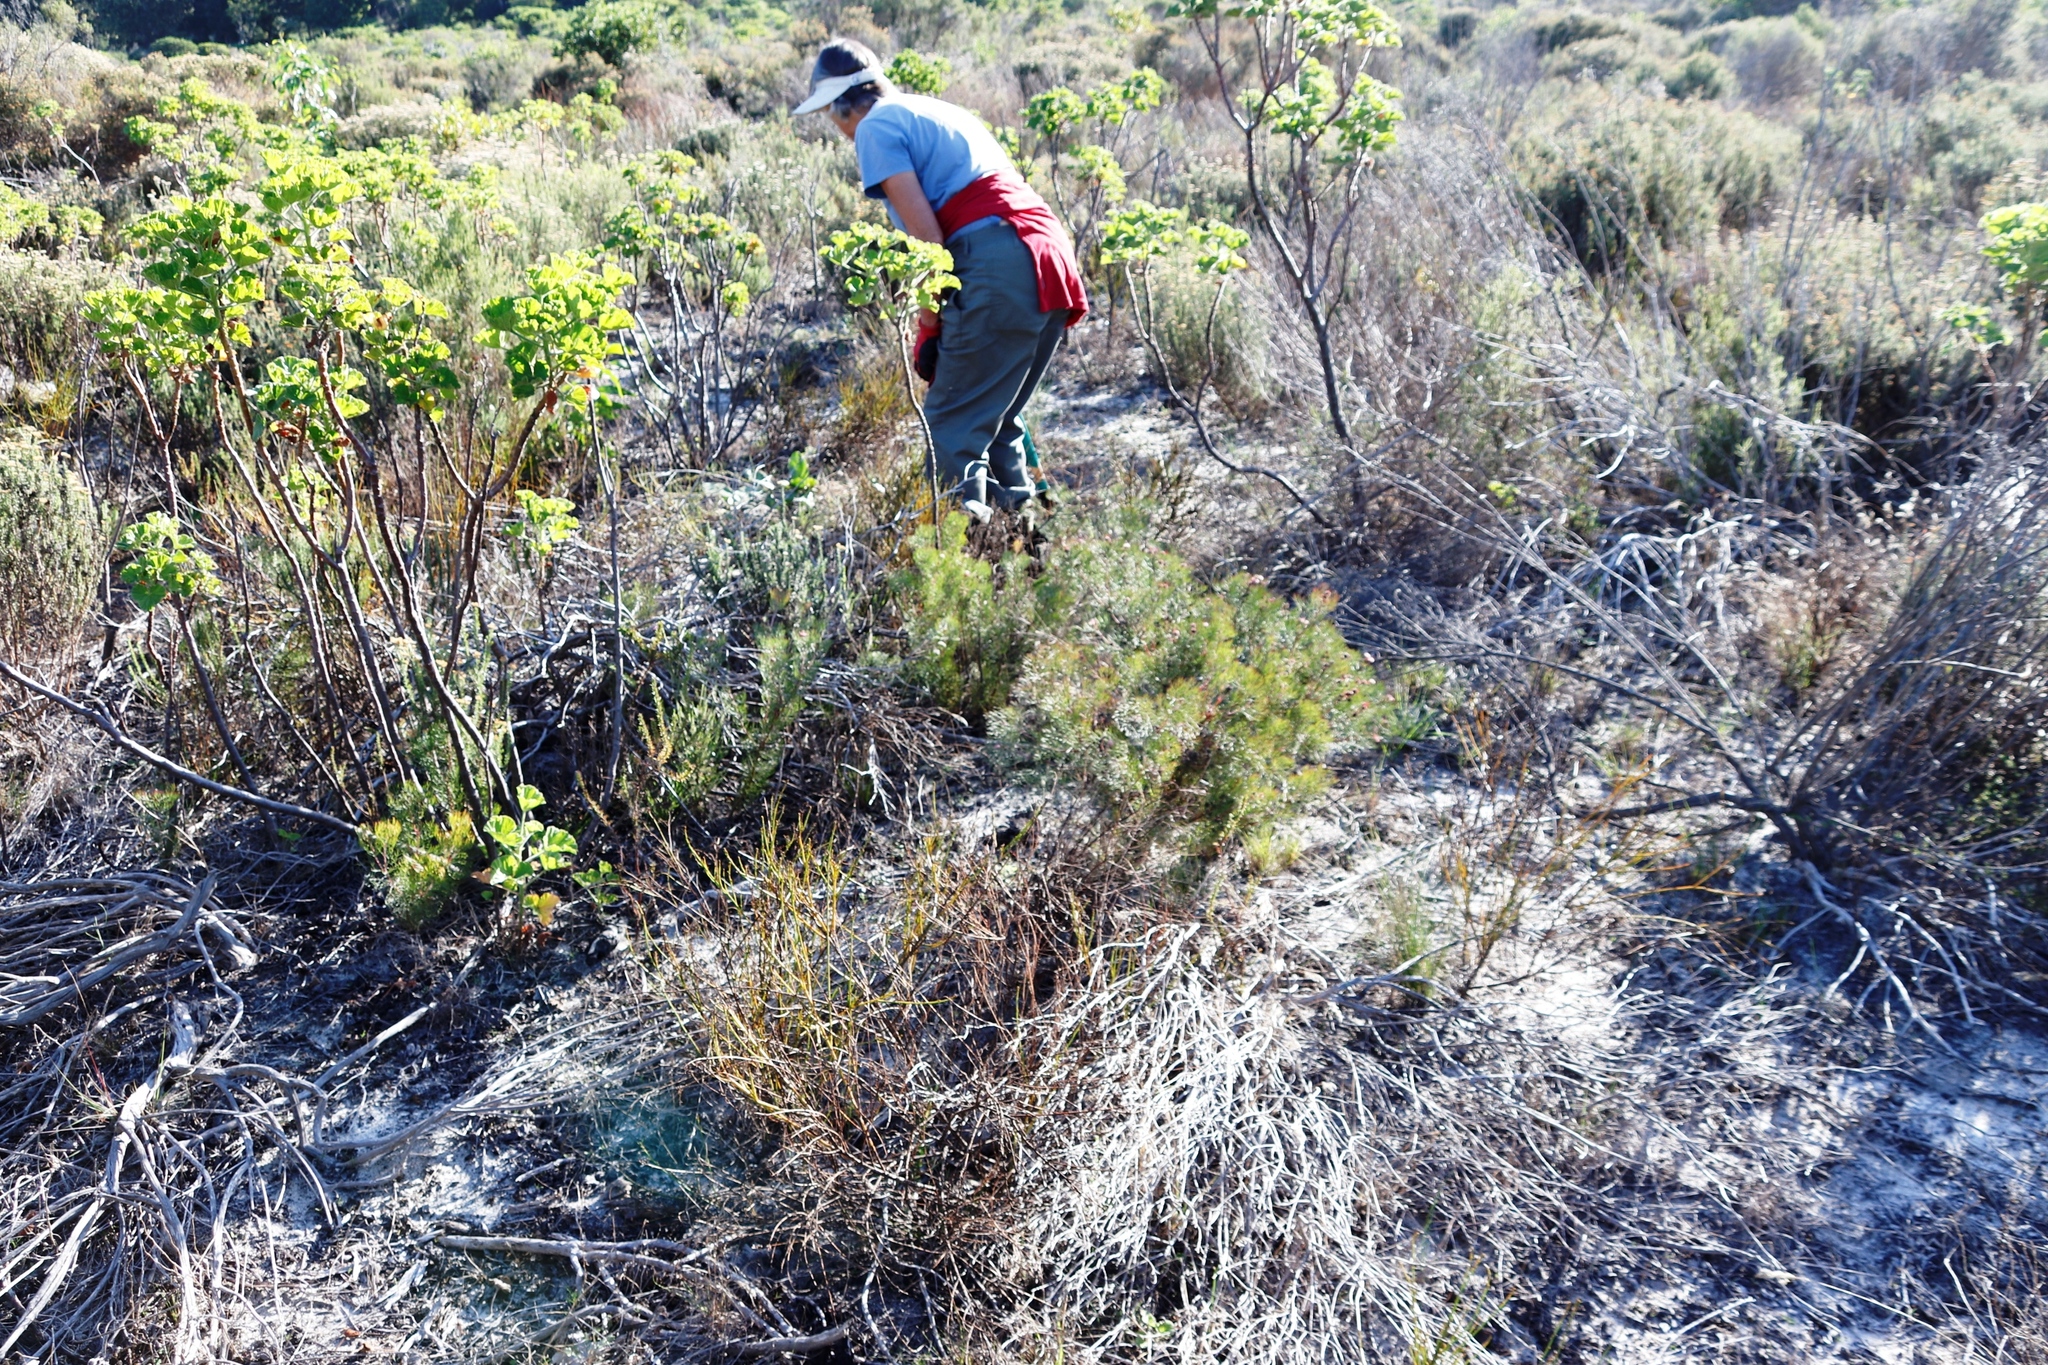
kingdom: Plantae
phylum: Tracheophyta
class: Magnoliopsida
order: Proteales
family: Proteaceae
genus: Serruria
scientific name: Serruria fasciflora
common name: Common pin spiderhead
